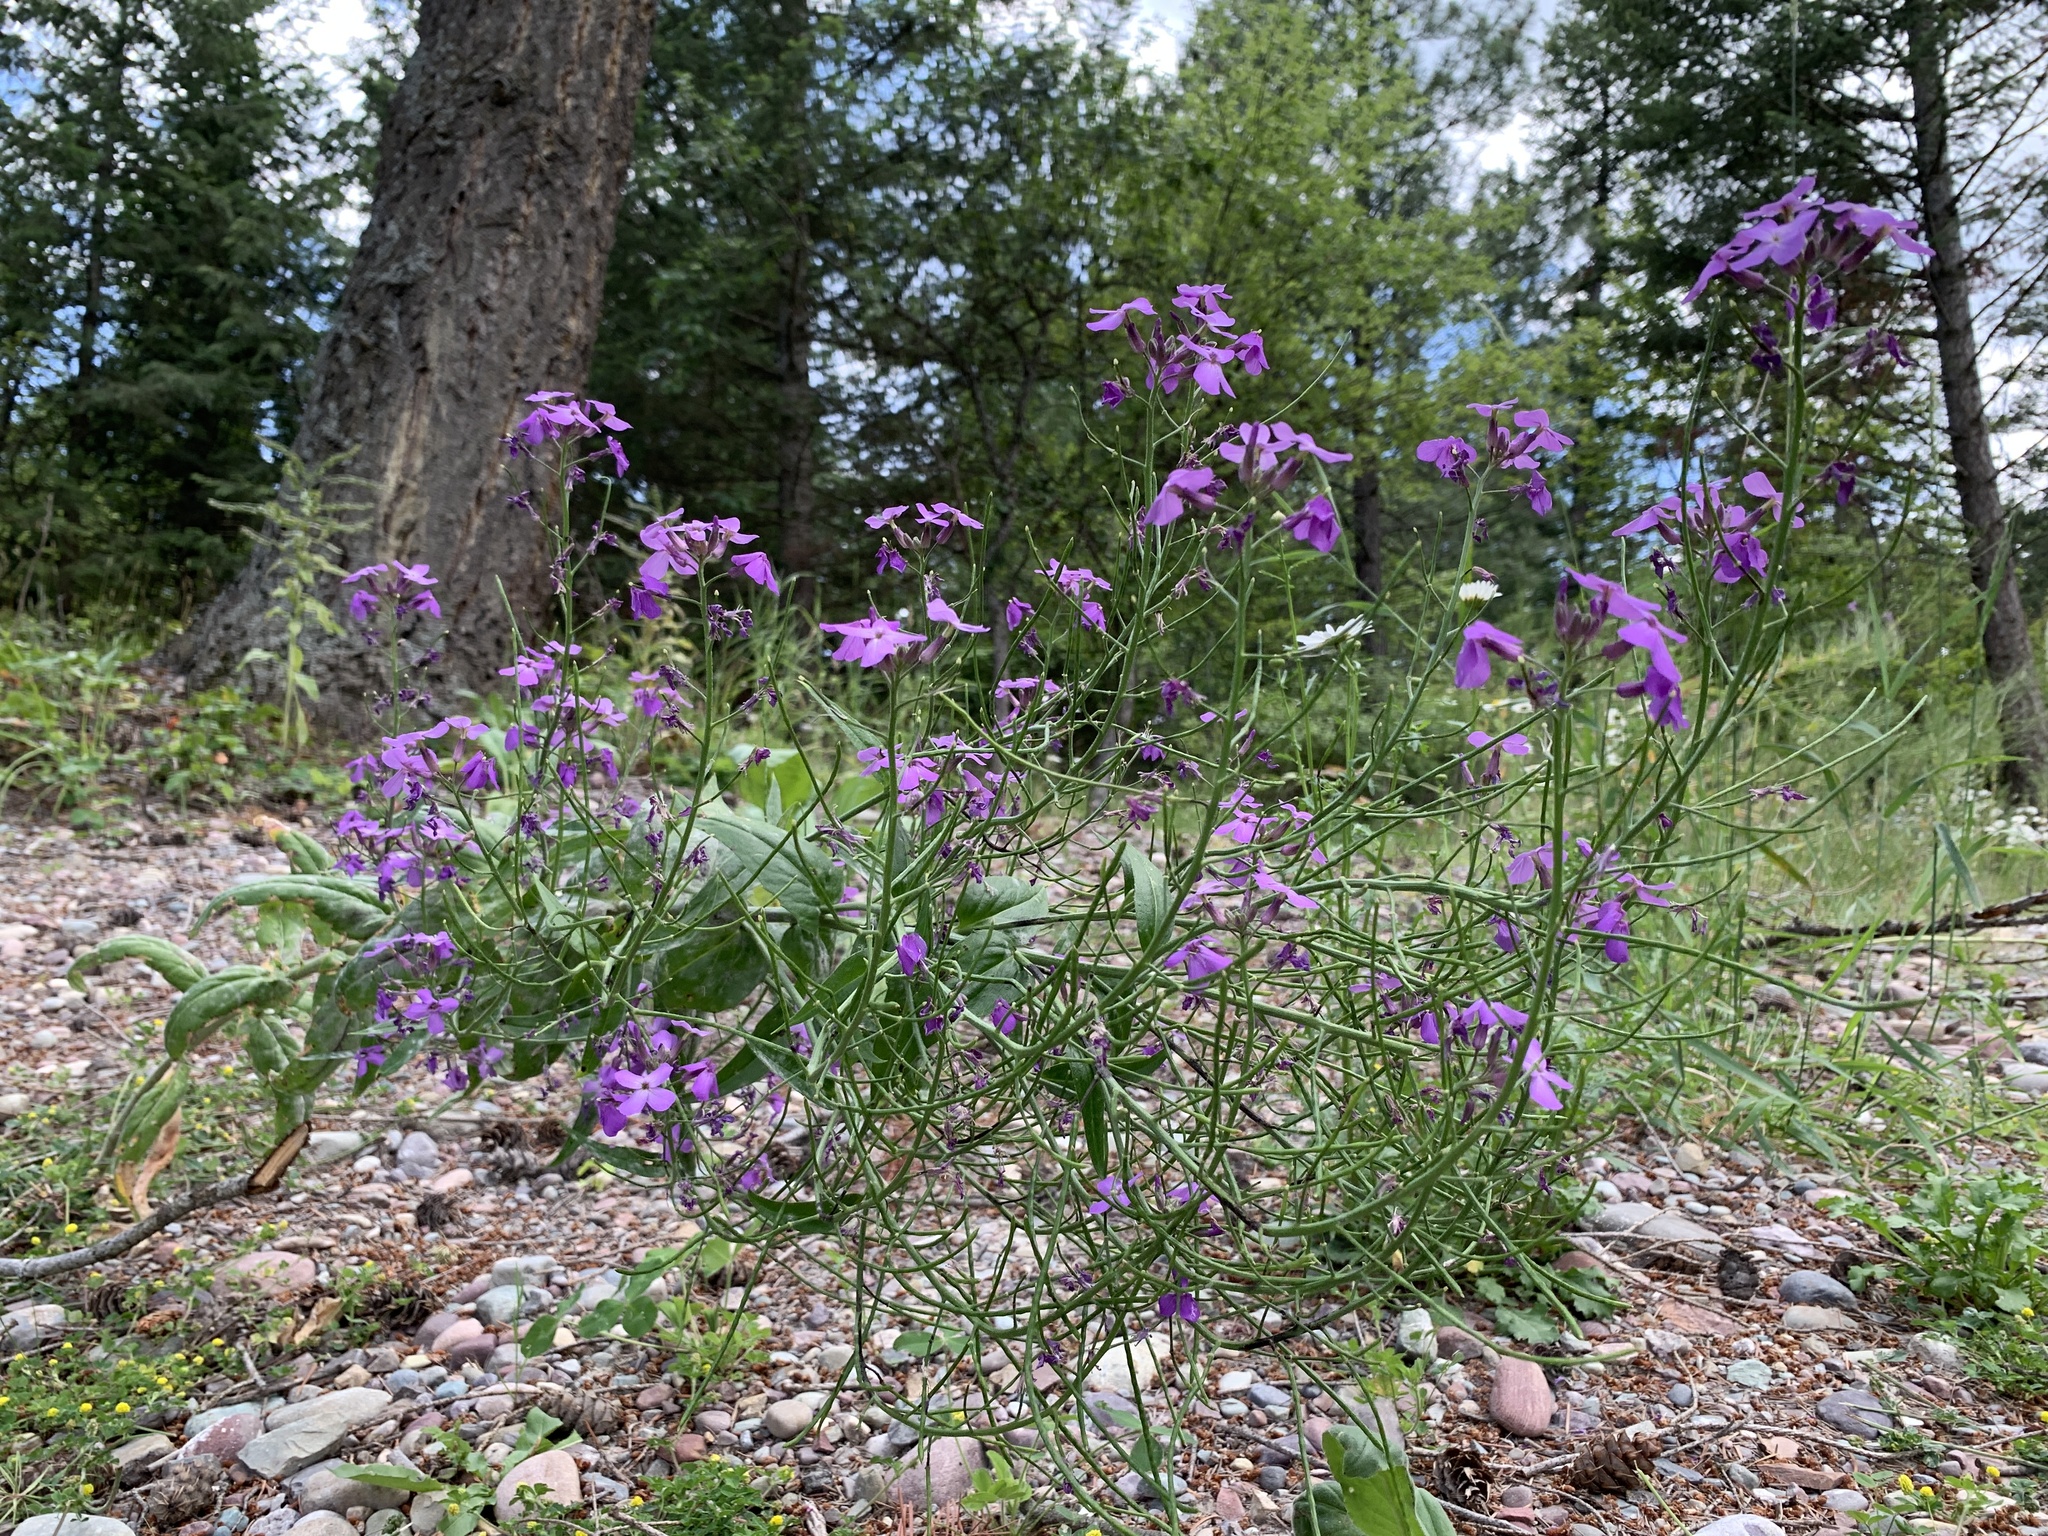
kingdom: Plantae
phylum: Tracheophyta
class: Magnoliopsida
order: Brassicales
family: Brassicaceae
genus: Hesperis
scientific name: Hesperis matronalis
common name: Dame's-violet
